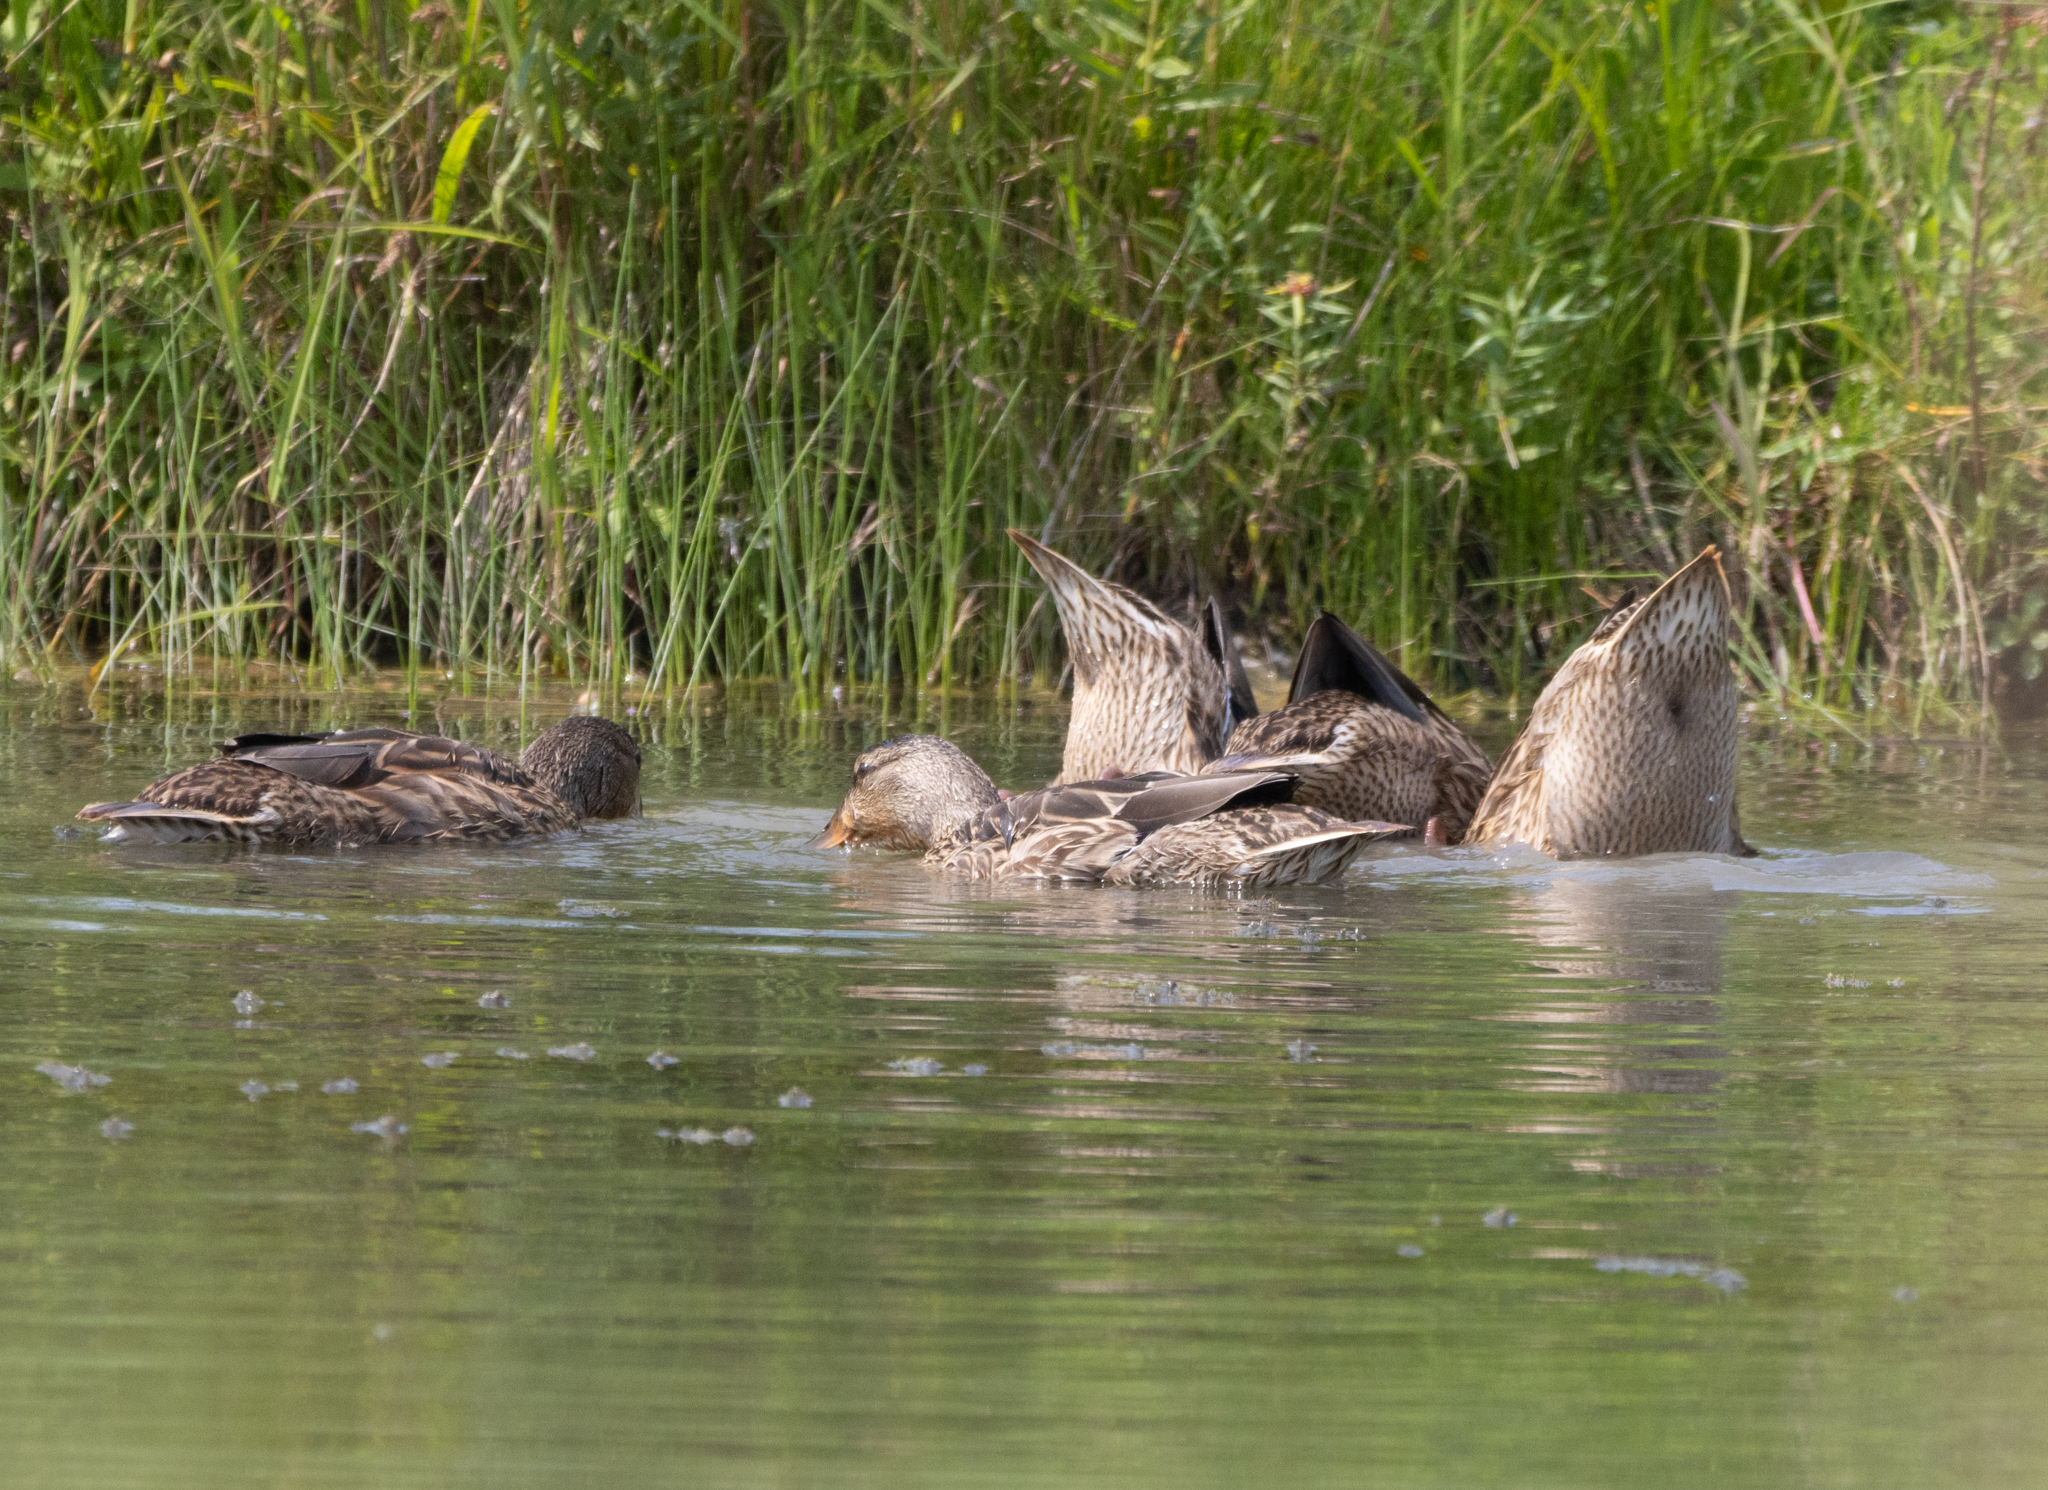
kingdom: Animalia
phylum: Chordata
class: Aves
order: Anseriformes
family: Anatidae
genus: Anas
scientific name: Anas platyrhynchos
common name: Mallard
